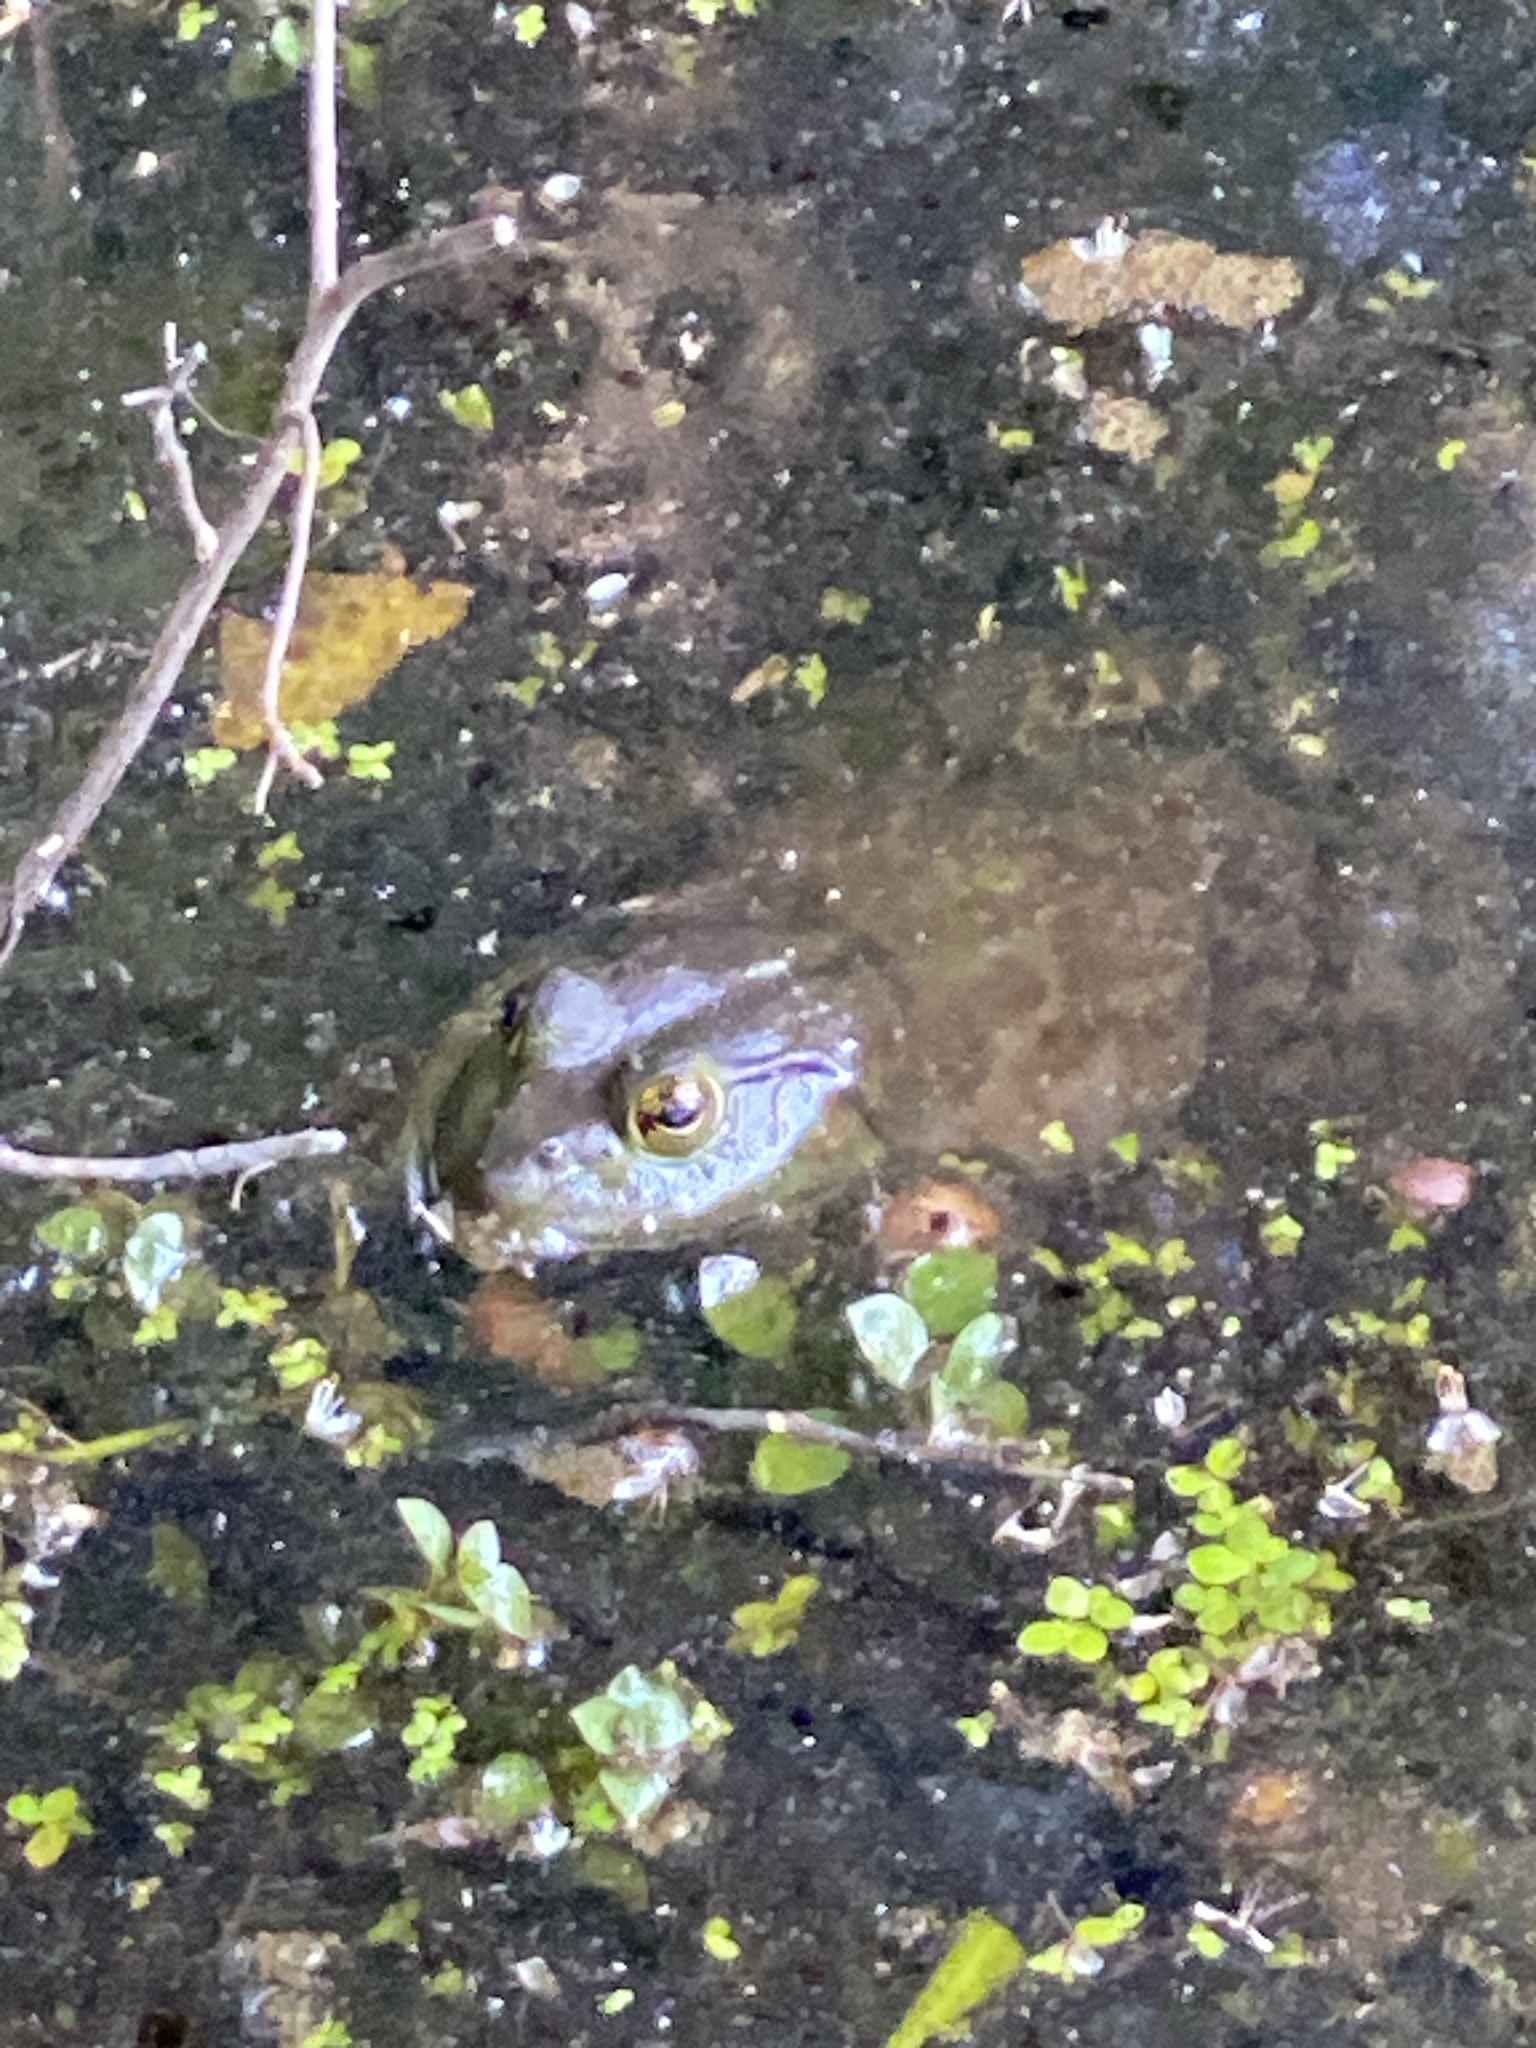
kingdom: Animalia
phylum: Chordata
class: Amphibia
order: Anura
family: Ranidae
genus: Lithobates
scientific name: Lithobates catesbeianus
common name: American bullfrog
